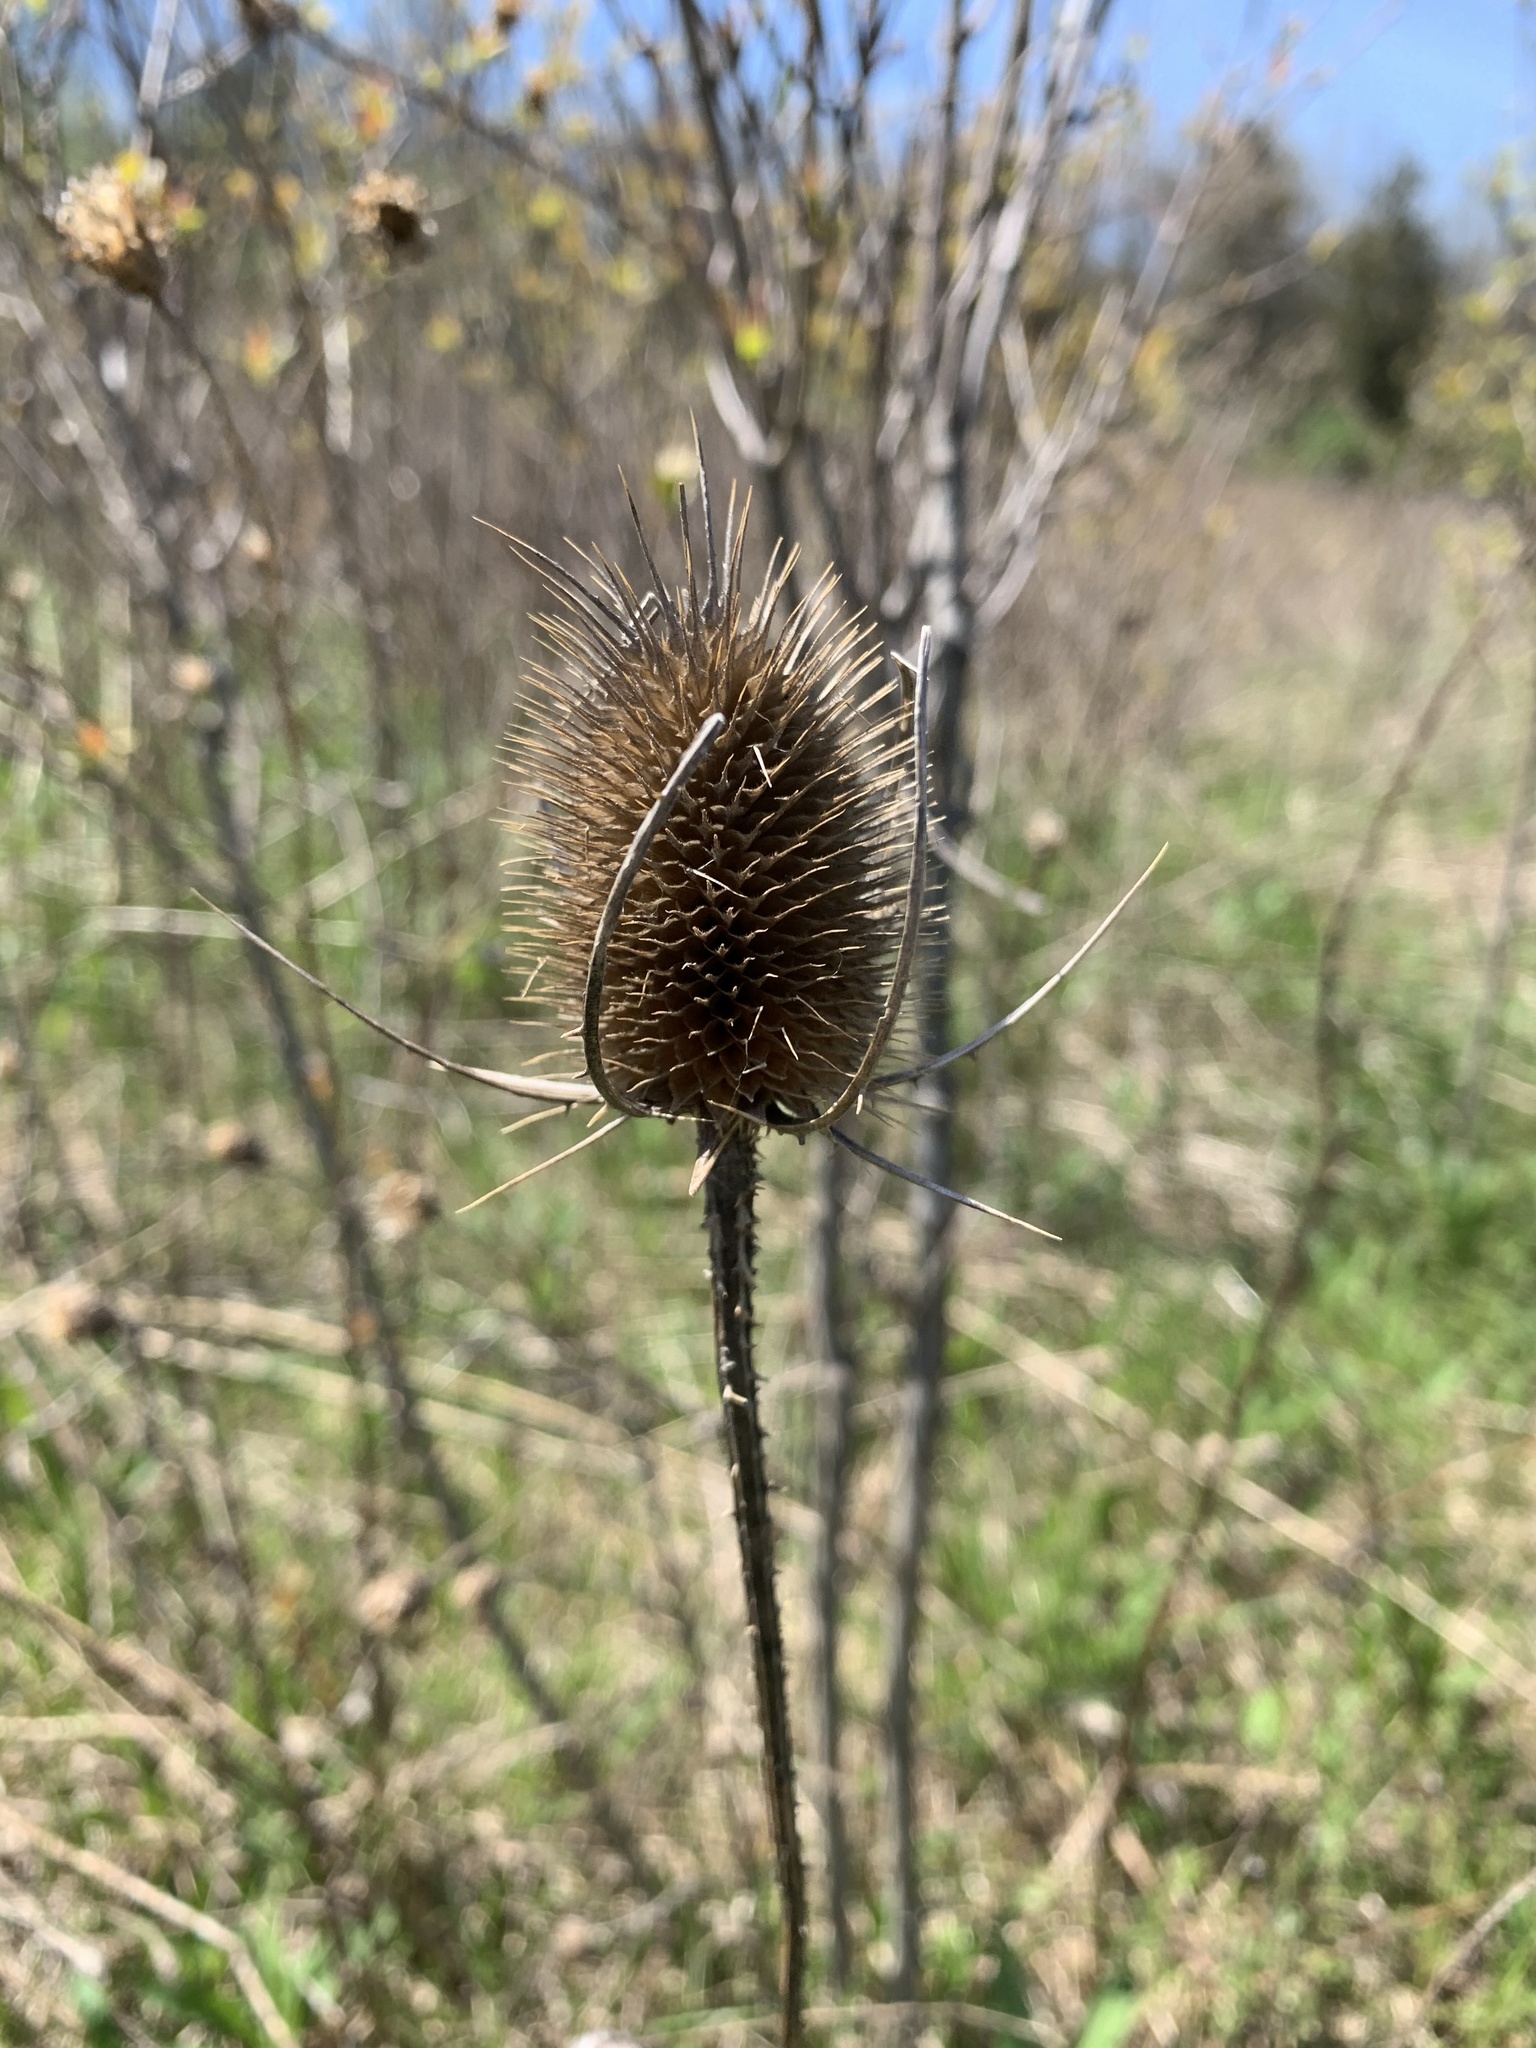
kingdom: Plantae
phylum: Tracheophyta
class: Magnoliopsida
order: Dipsacales
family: Caprifoliaceae
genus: Dipsacus
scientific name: Dipsacus fullonum
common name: Teasel
